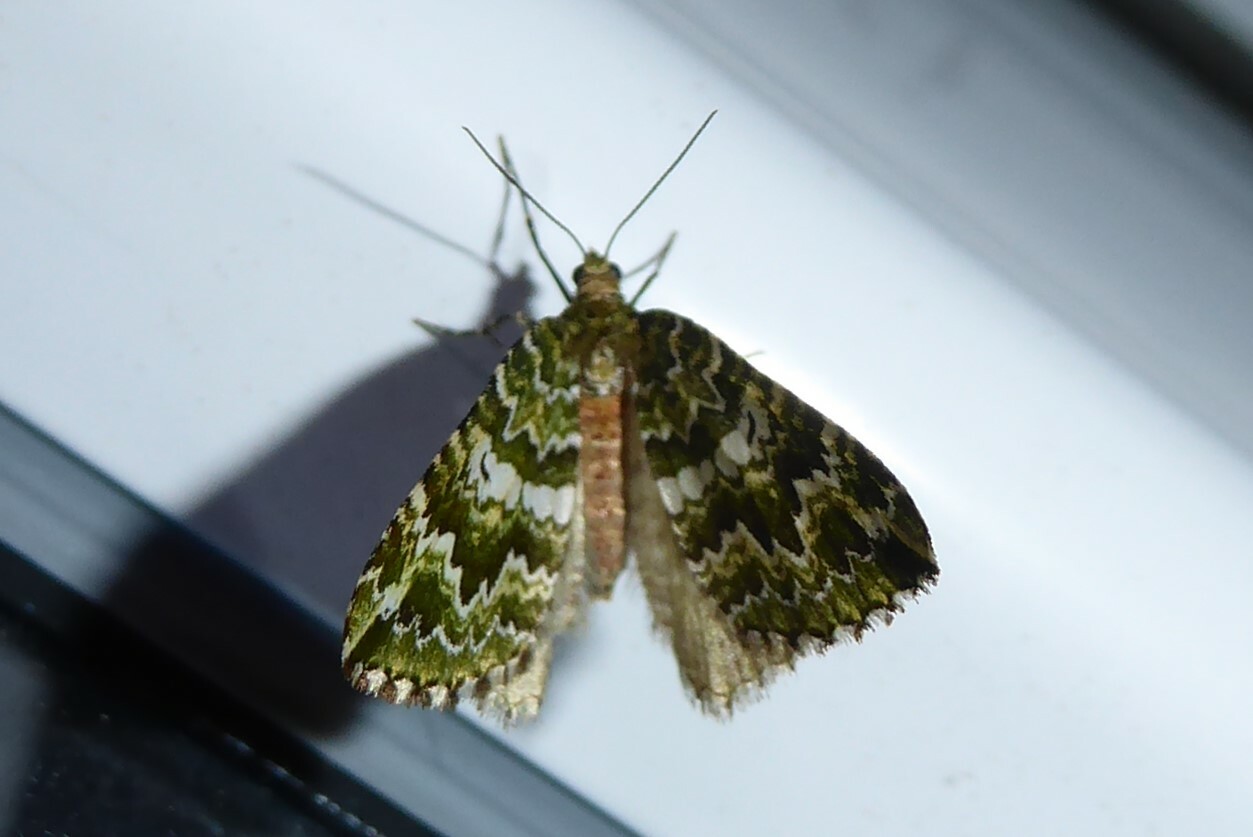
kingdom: Animalia
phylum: Arthropoda
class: Insecta
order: Lepidoptera
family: Geometridae
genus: Asaphodes
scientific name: Asaphodes beata
